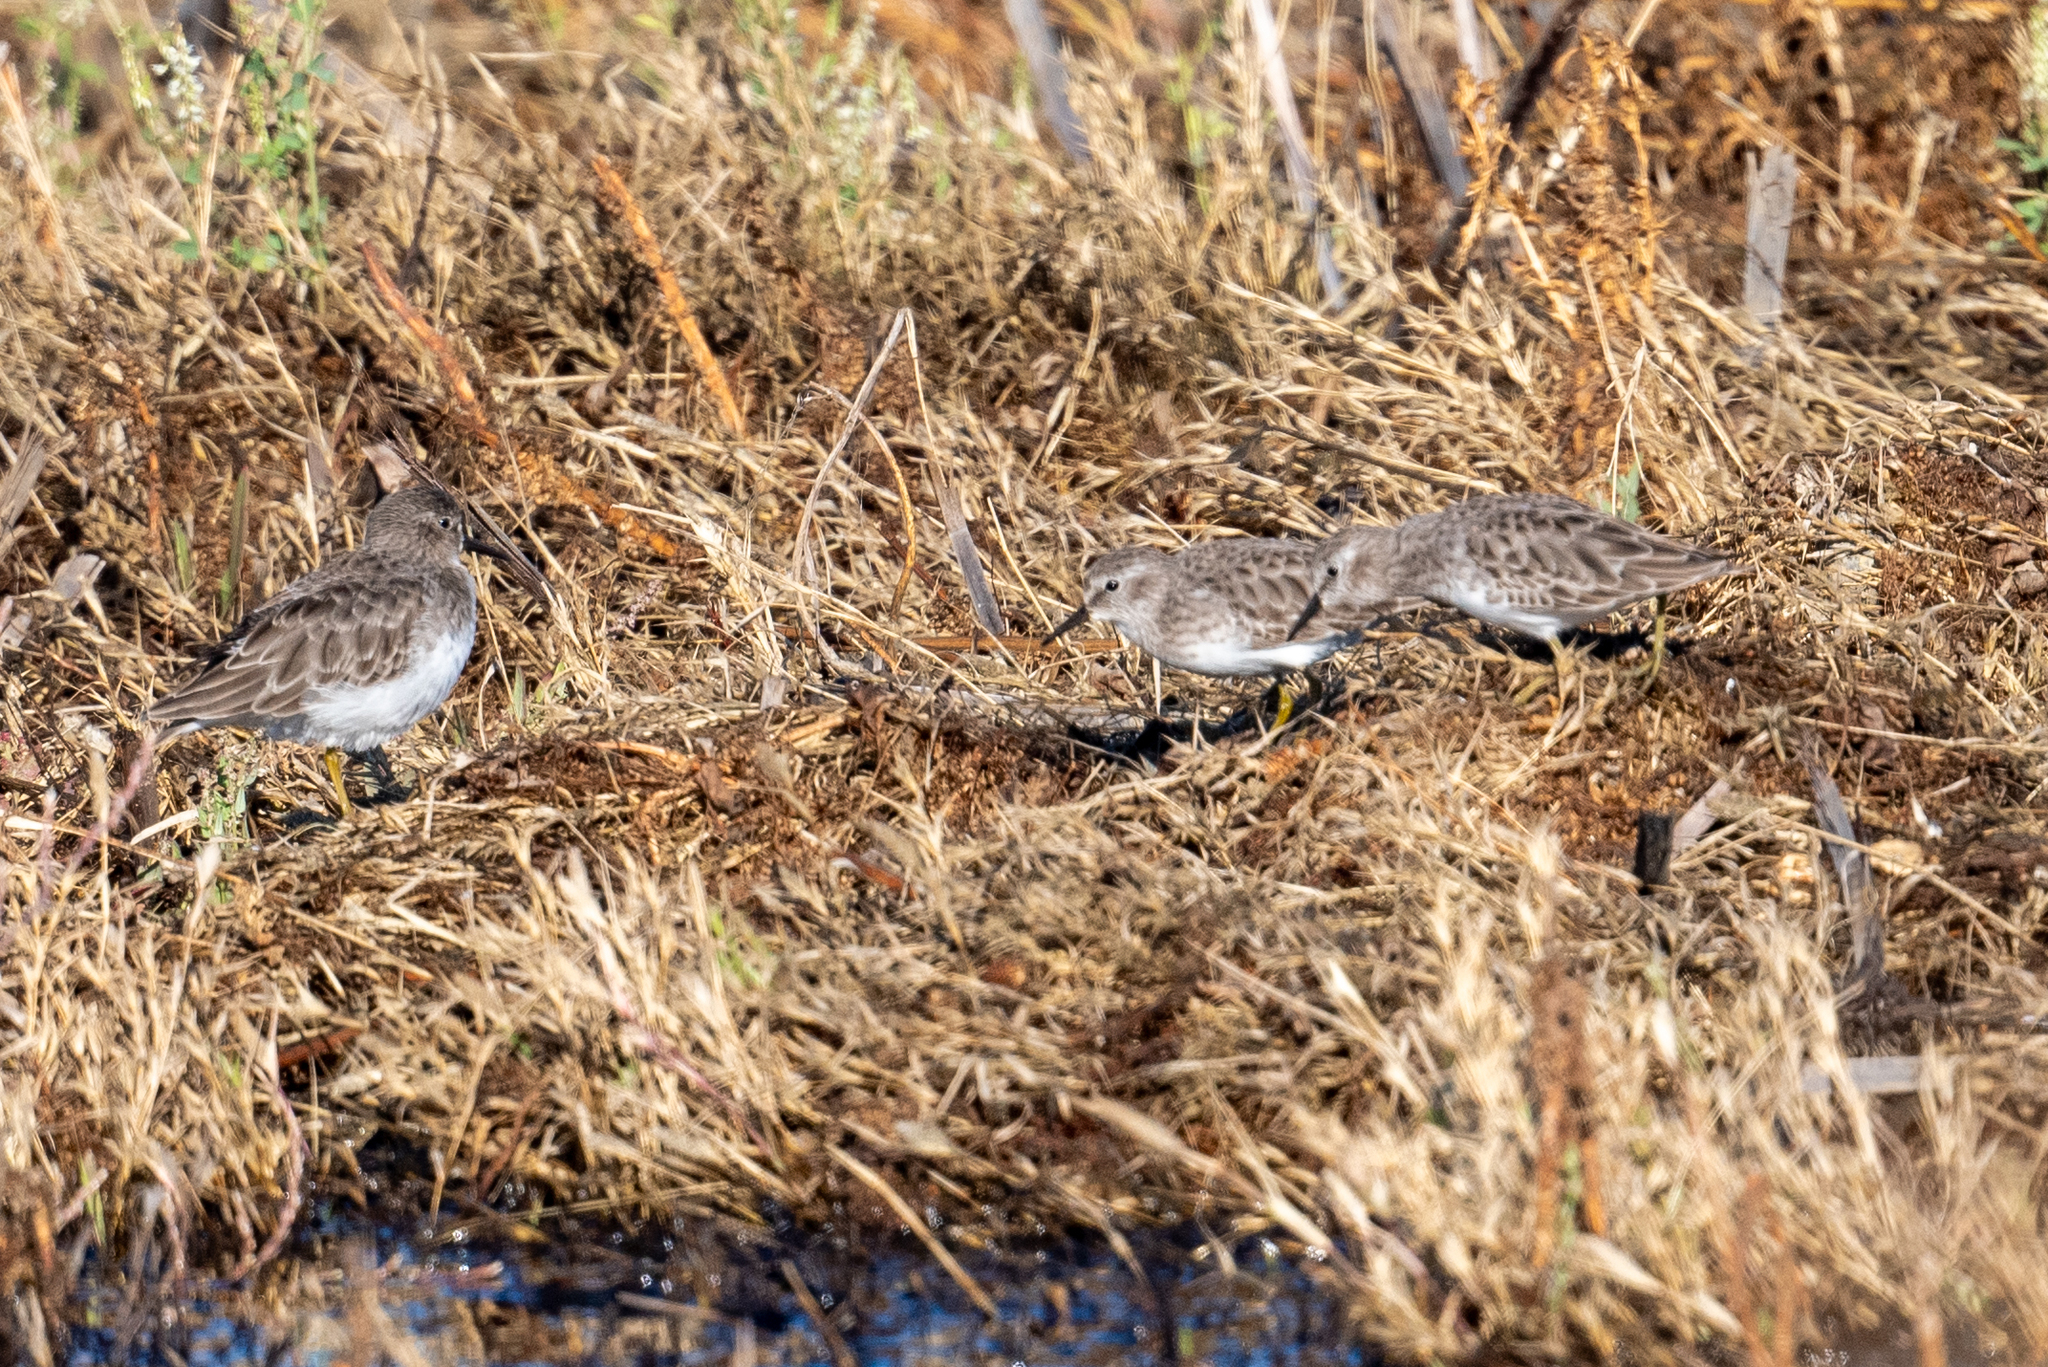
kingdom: Animalia
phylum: Chordata
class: Aves
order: Charadriiformes
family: Scolopacidae
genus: Calidris
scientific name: Calidris minutilla
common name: Least sandpiper
